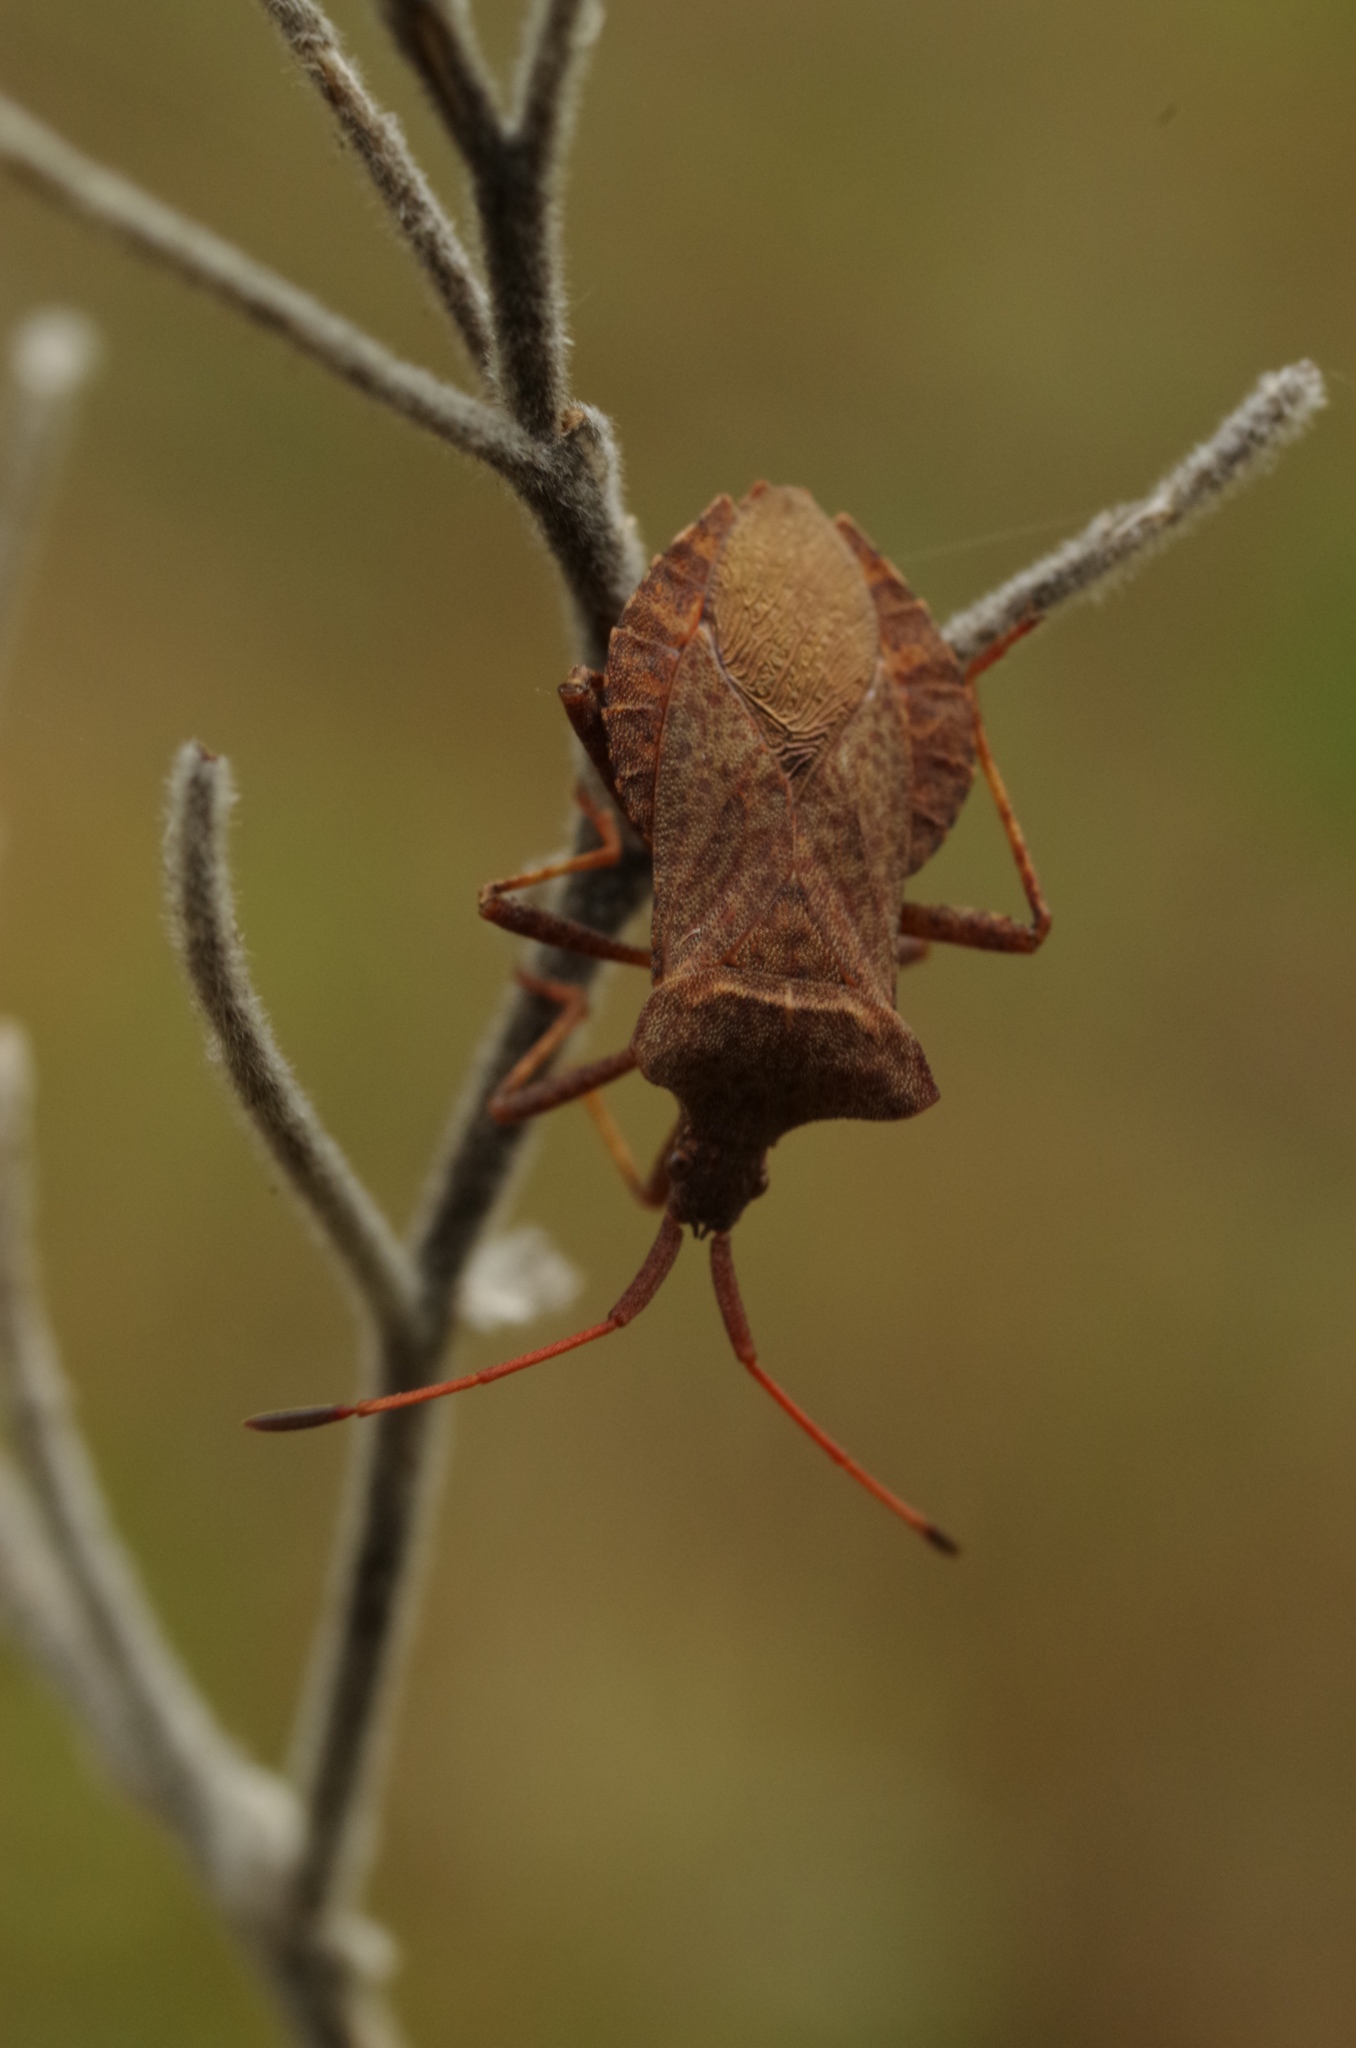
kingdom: Animalia
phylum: Arthropoda
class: Insecta
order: Hemiptera
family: Coreidae
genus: Coreus
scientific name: Coreus marginatus
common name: Dock bug
